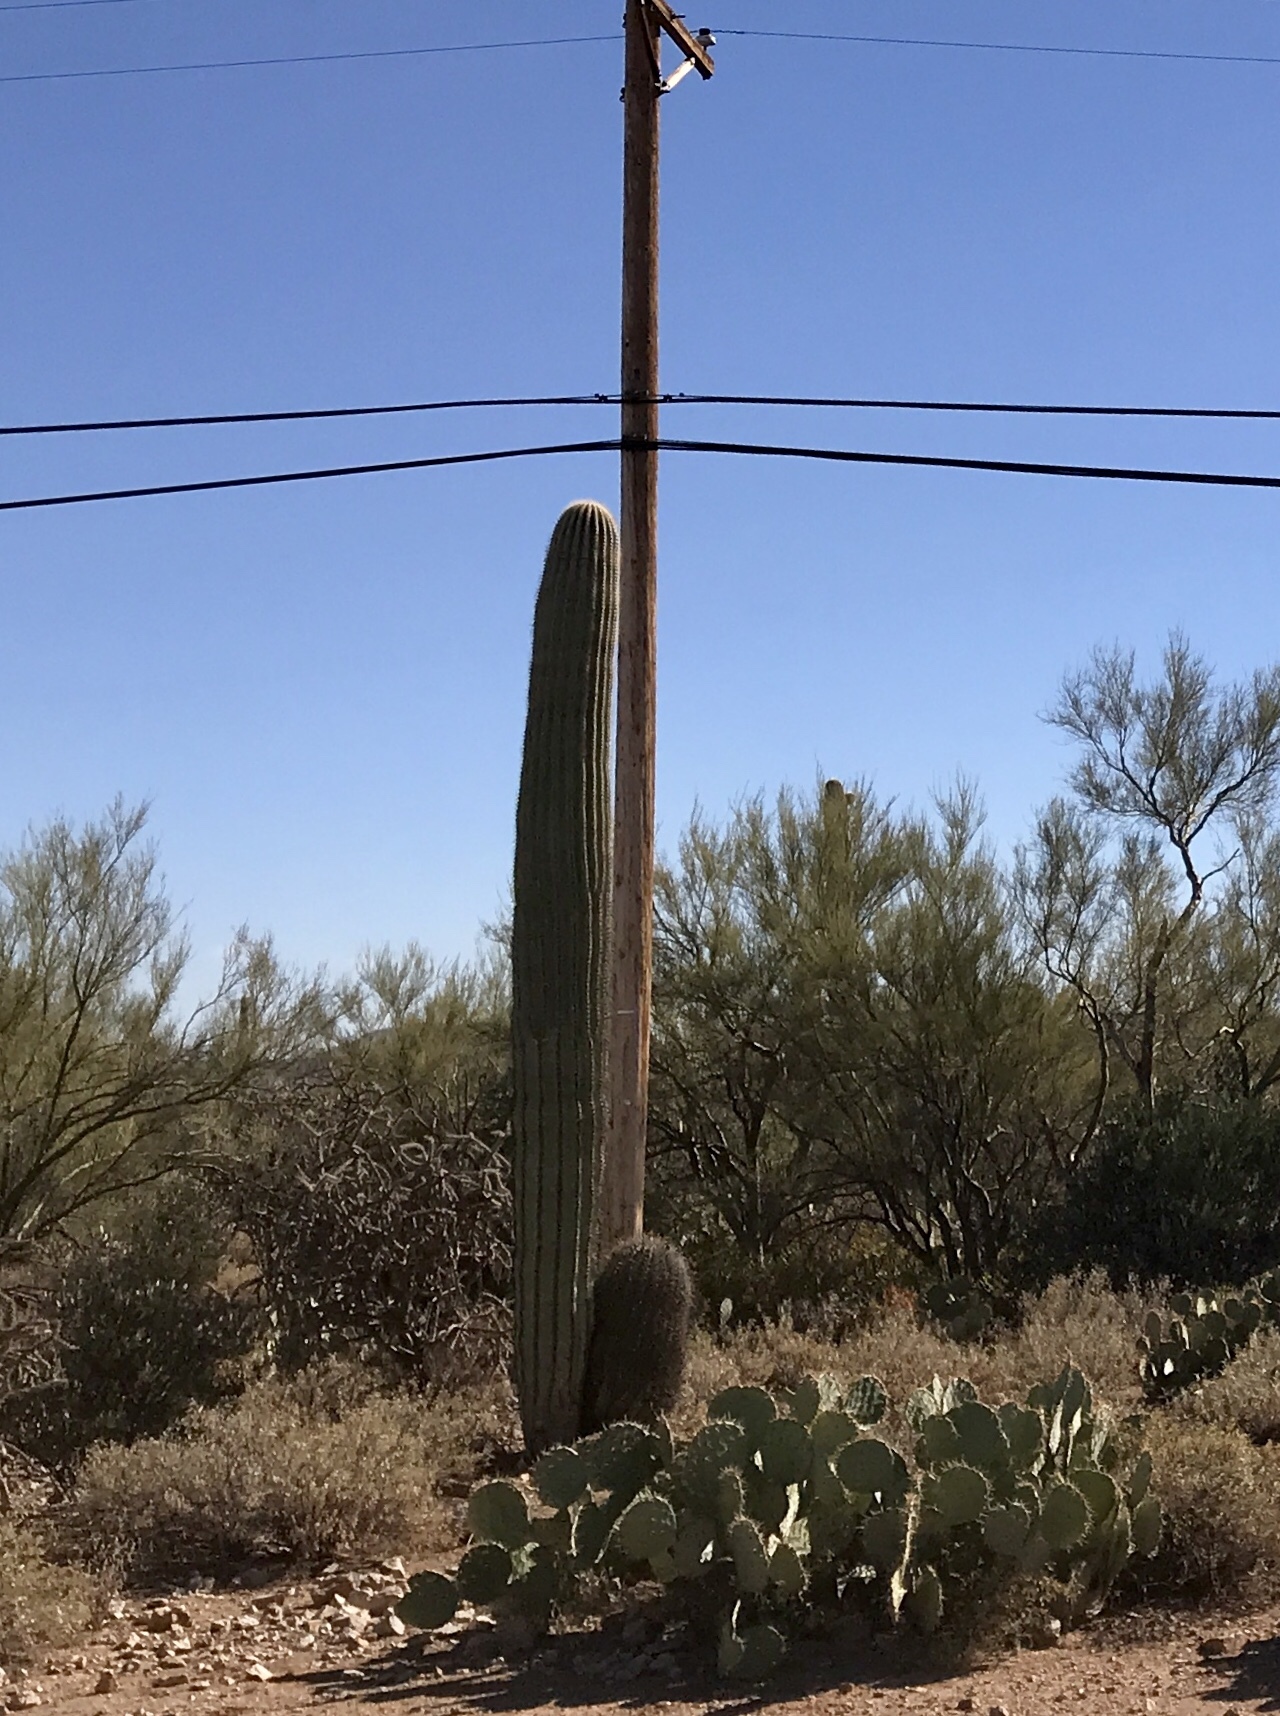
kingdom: Plantae
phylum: Tracheophyta
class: Magnoliopsida
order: Caryophyllales
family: Cactaceae
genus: Carnegiea
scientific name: Carnegiea gigantea
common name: Saguaro
